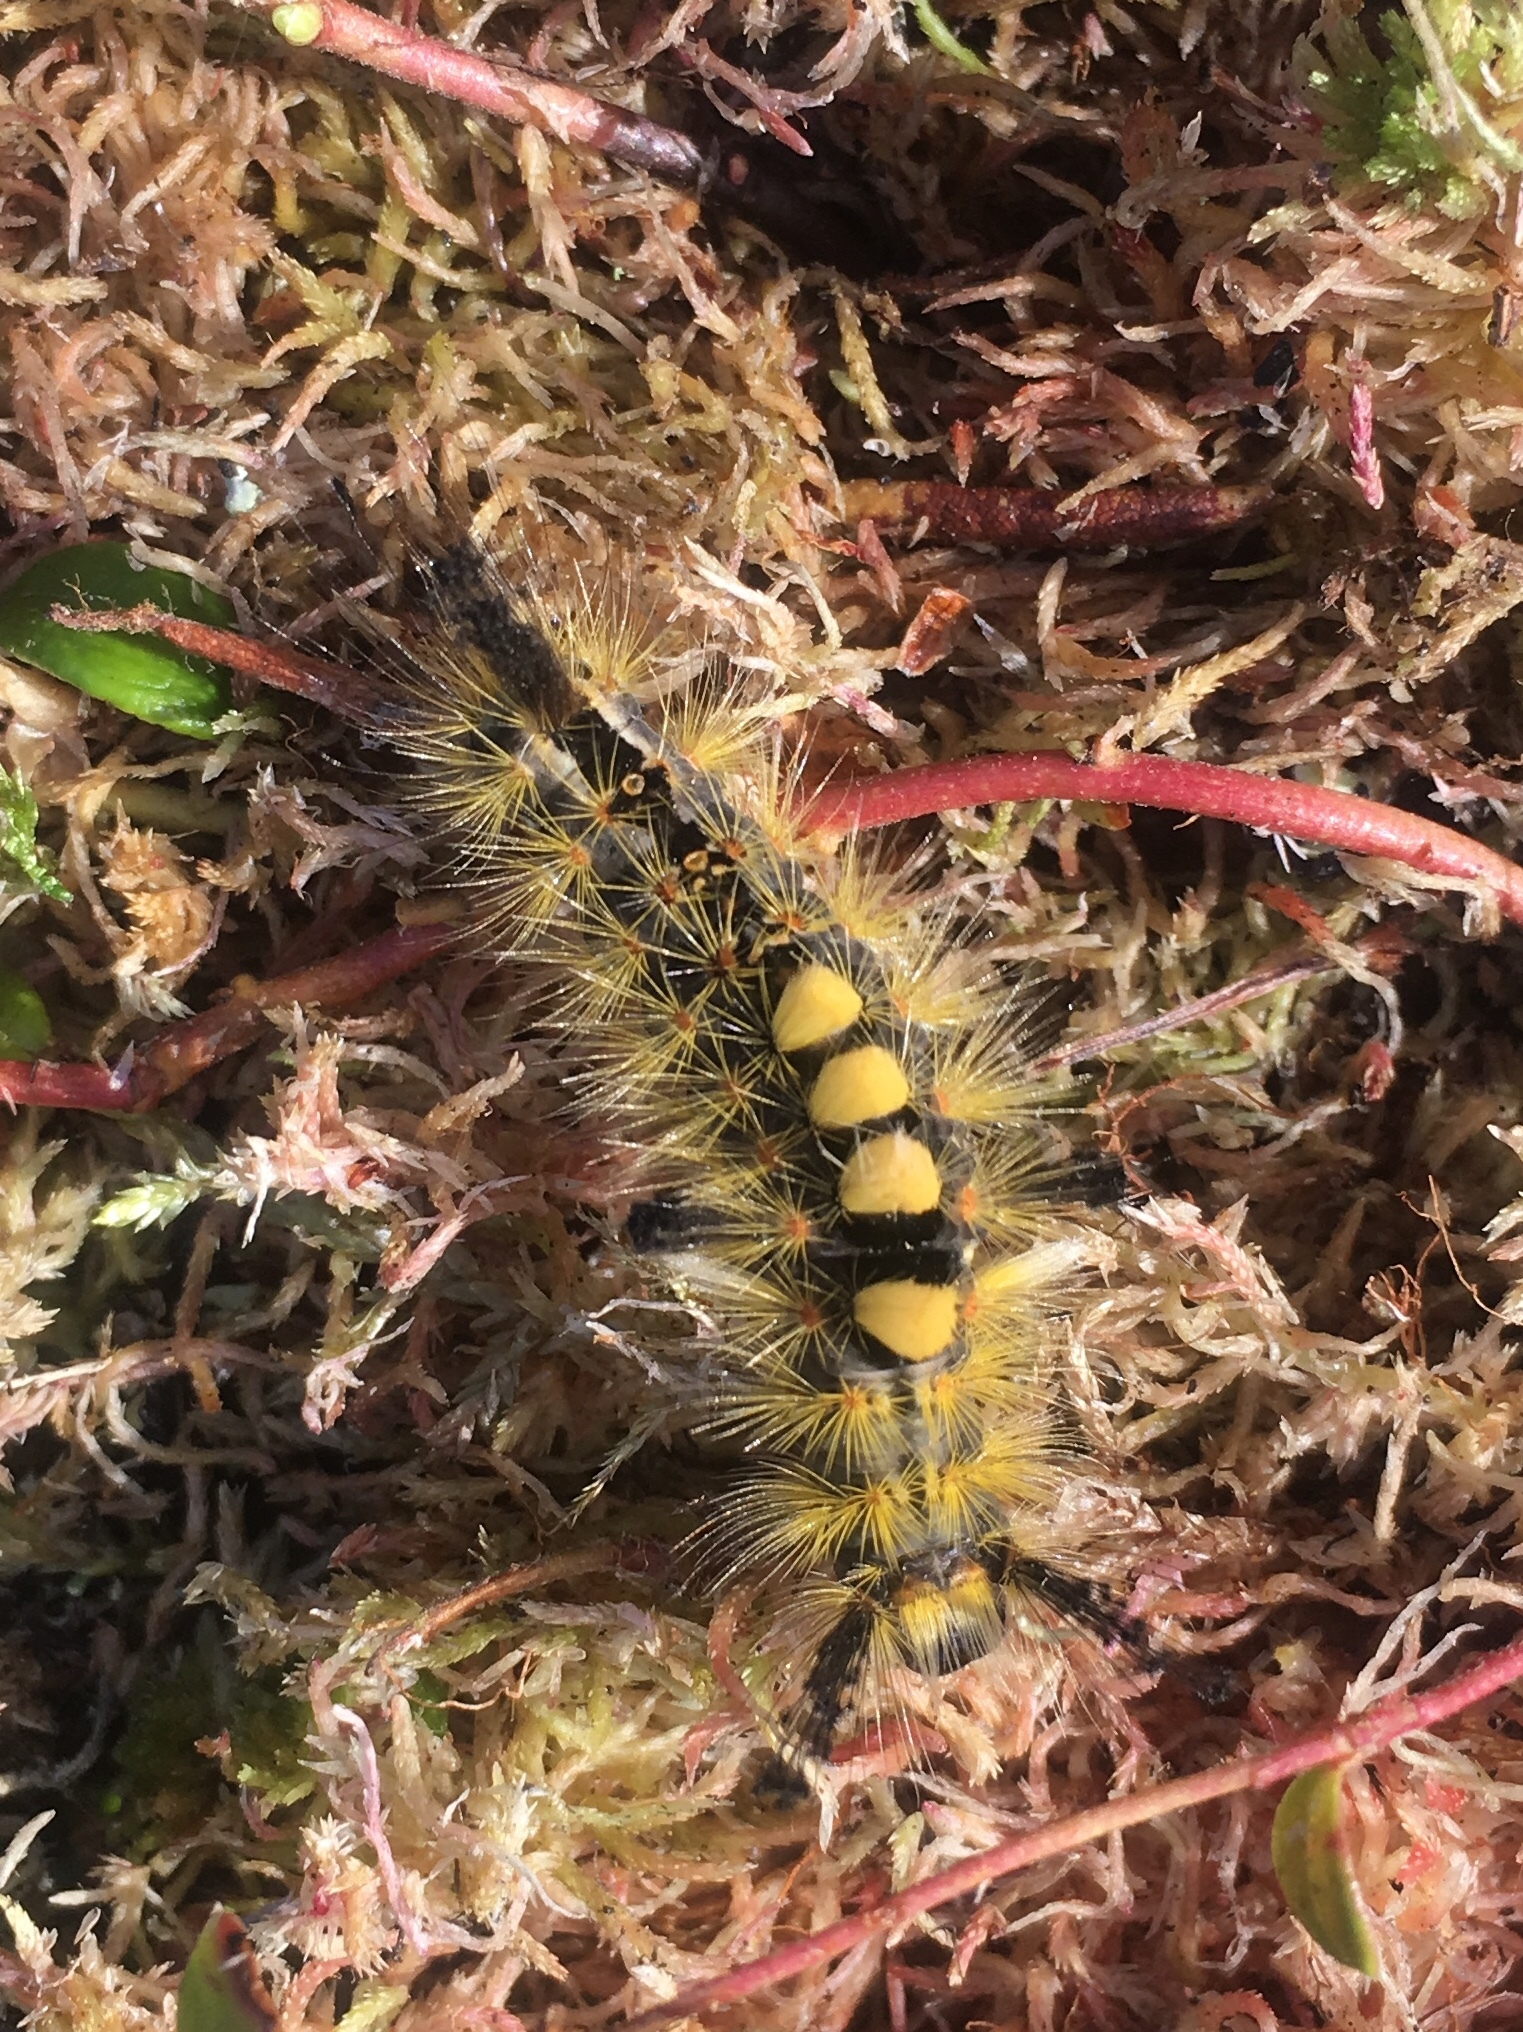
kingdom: Animalia
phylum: Arthropoda
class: Insecta
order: Lepidoptera
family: Erebidae
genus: Orgyia
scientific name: Orgyia antiqua
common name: Vapourer
